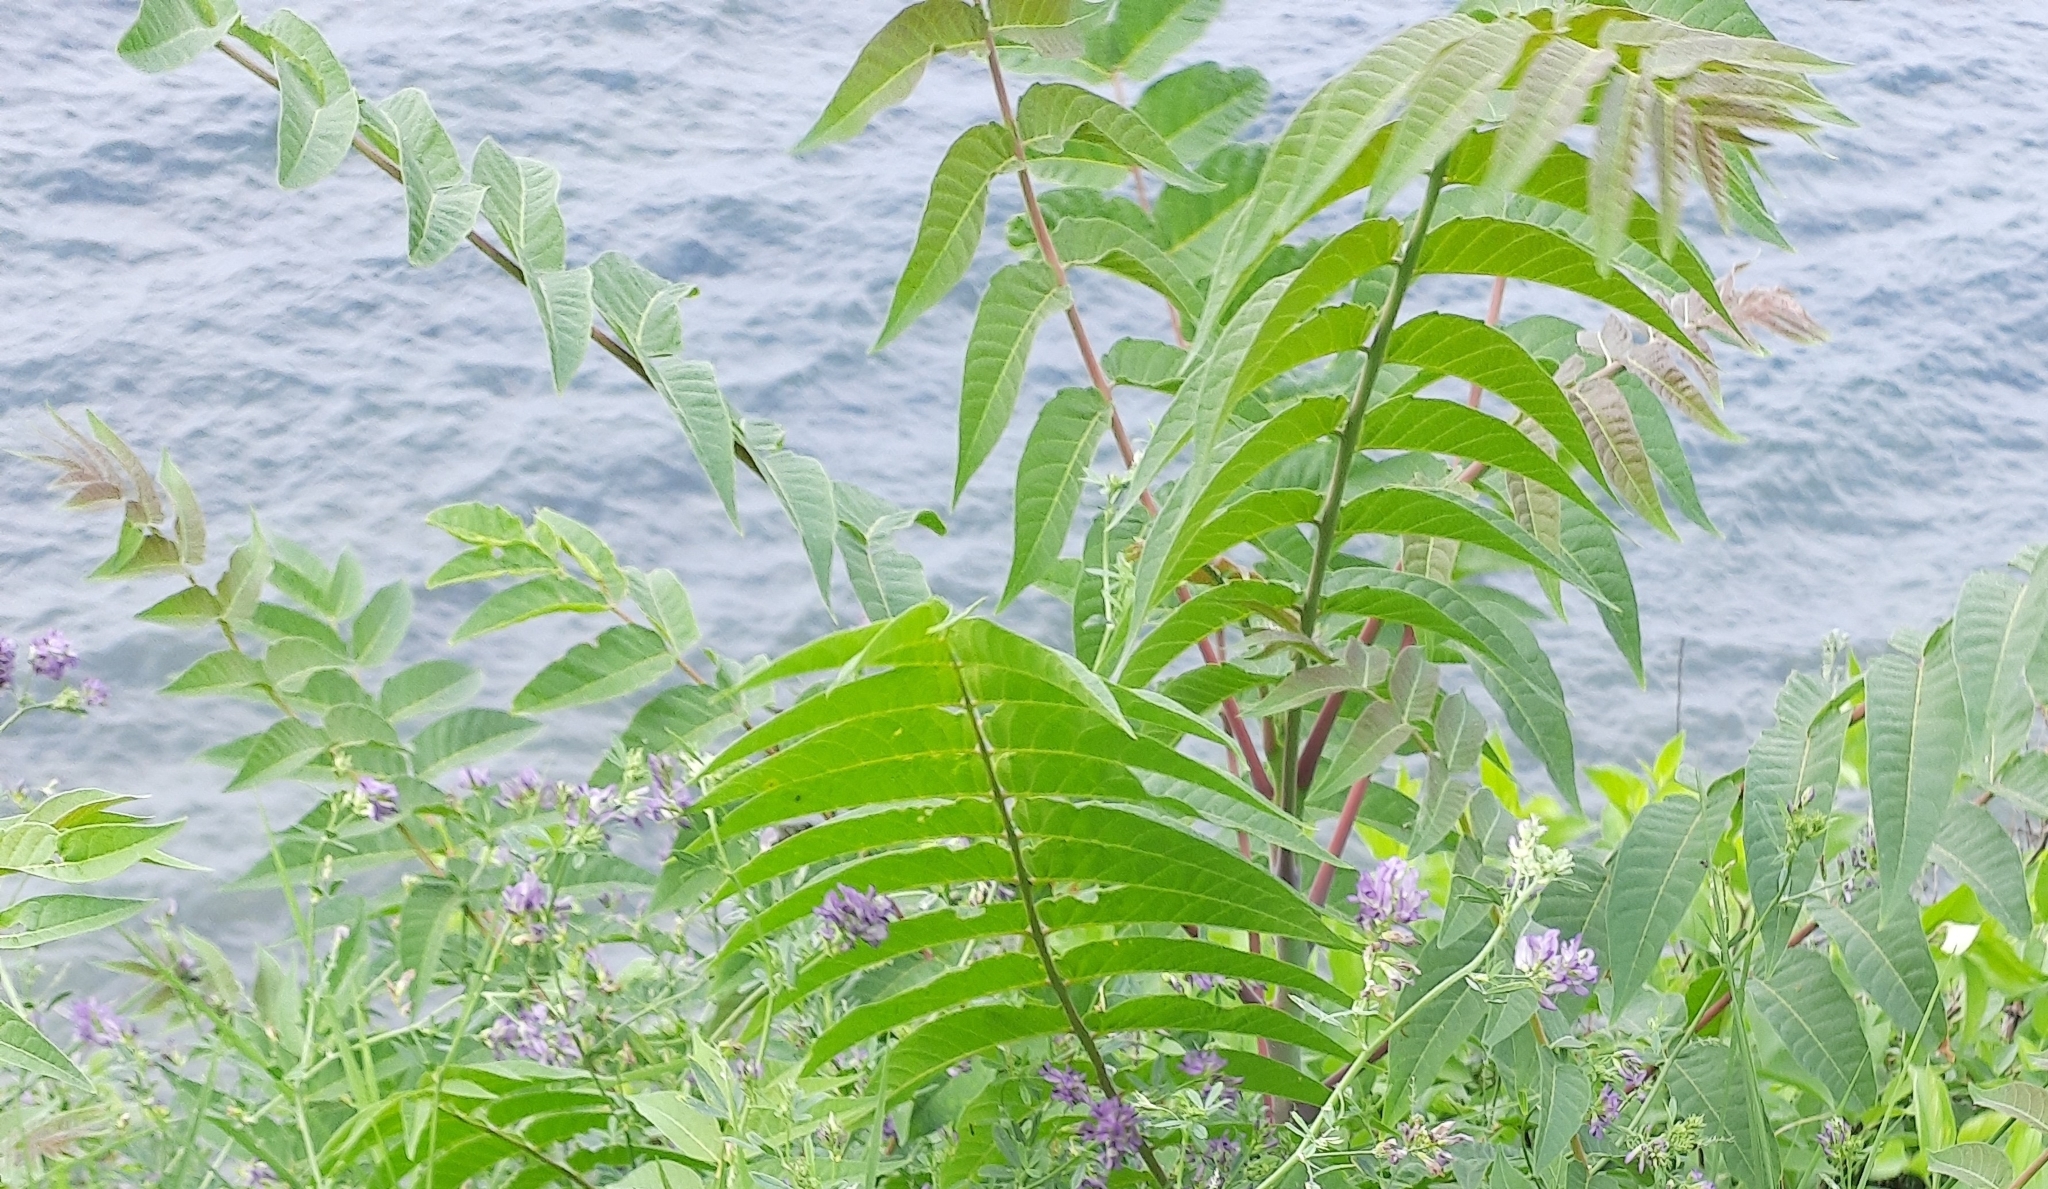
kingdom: Plantae
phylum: Tracheophyta
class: Magnoliopsida
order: Sapindales
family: Simaroubaceae
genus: Ailanthus
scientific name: Ailanthus altissima
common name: Tree-of-heaven
